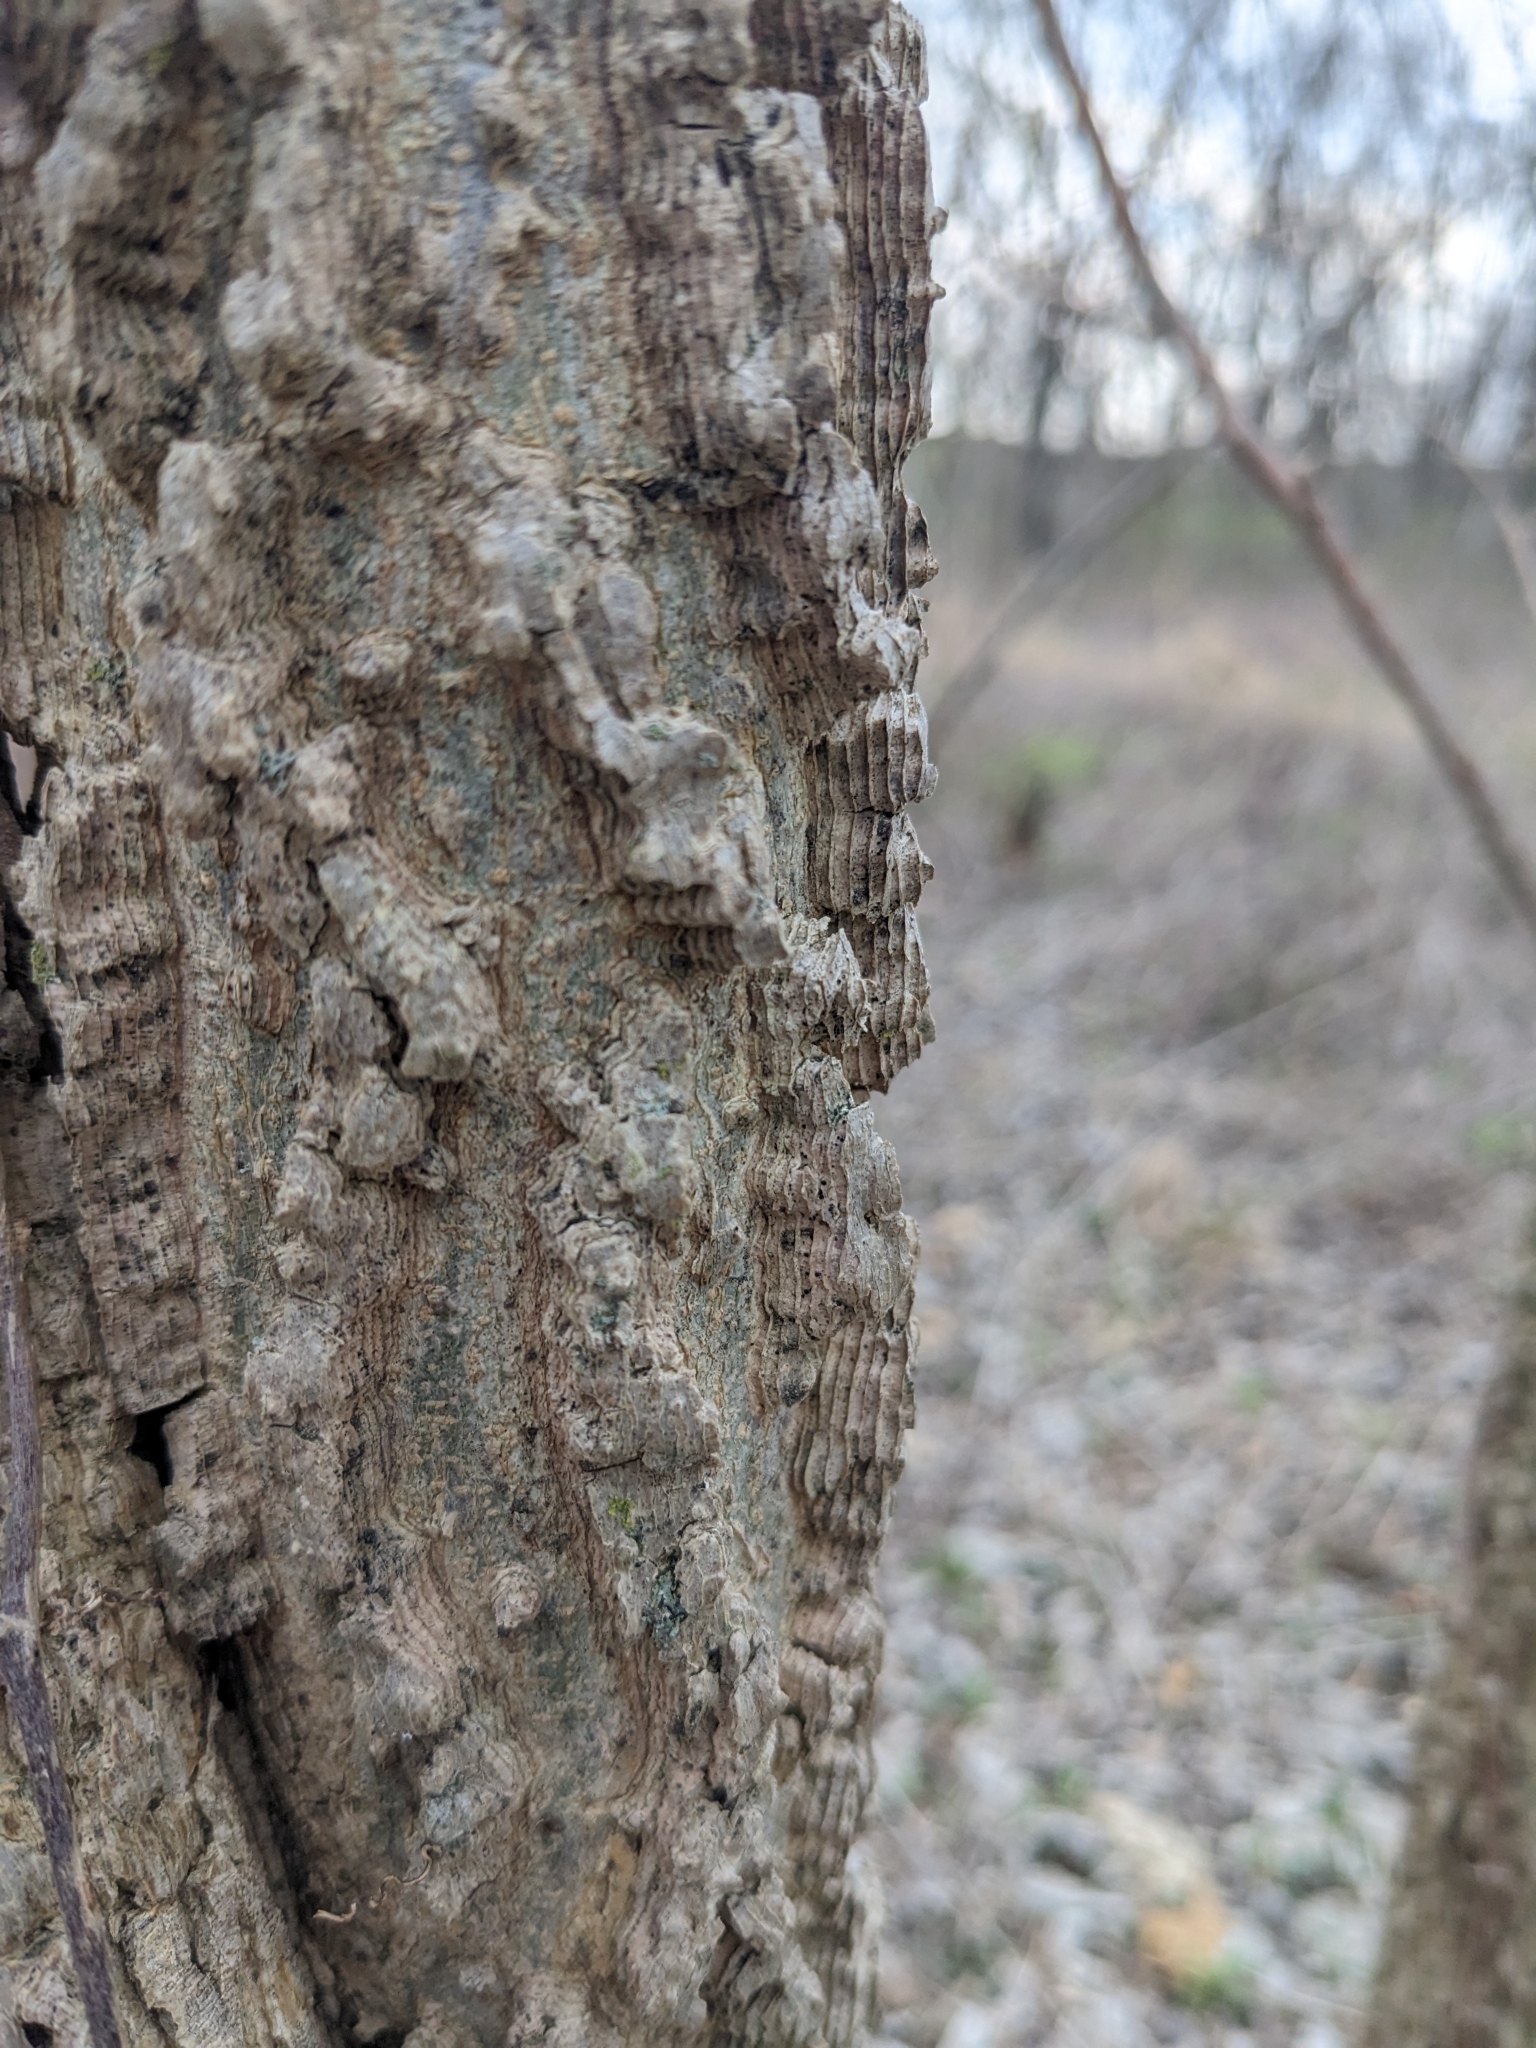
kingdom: Plantae
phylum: Tracheophyta
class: Magnoliopsida
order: Rosales
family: Cannabaceae
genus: Celtis
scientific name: Celtis occidentalis
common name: Common hackberry
